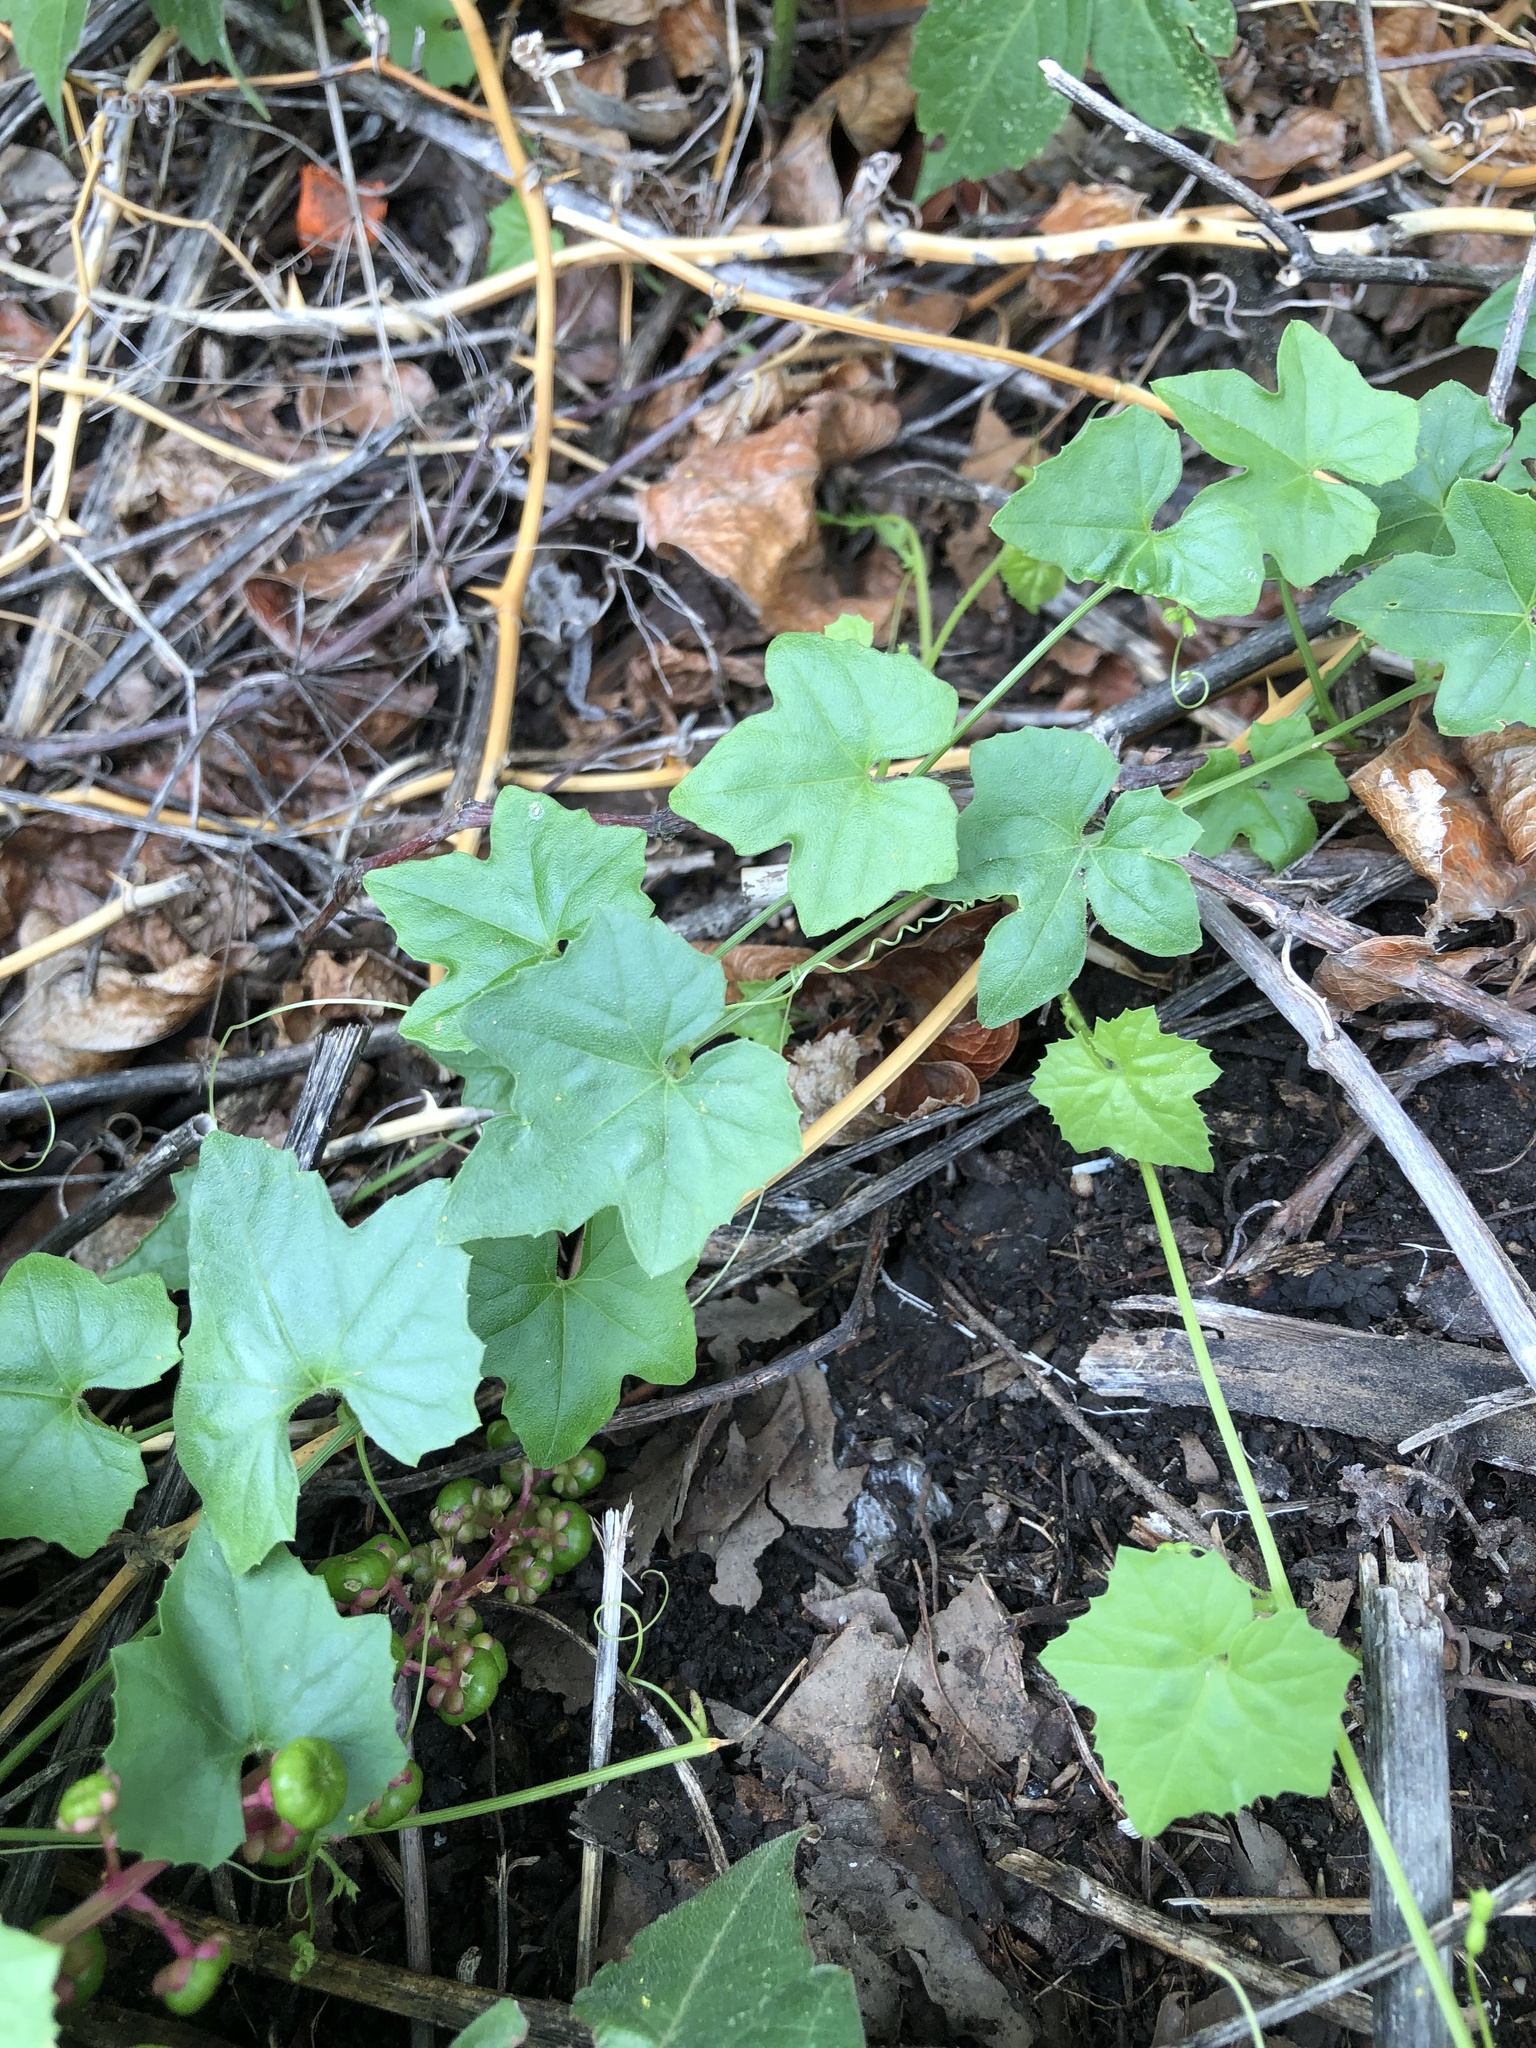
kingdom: Plantae
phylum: Tracheophyta
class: Magnoliopsida
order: Cucurbitales
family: Cucurbitaceae
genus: Melothria
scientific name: Melothria pendula
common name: Creeping-cucumber
